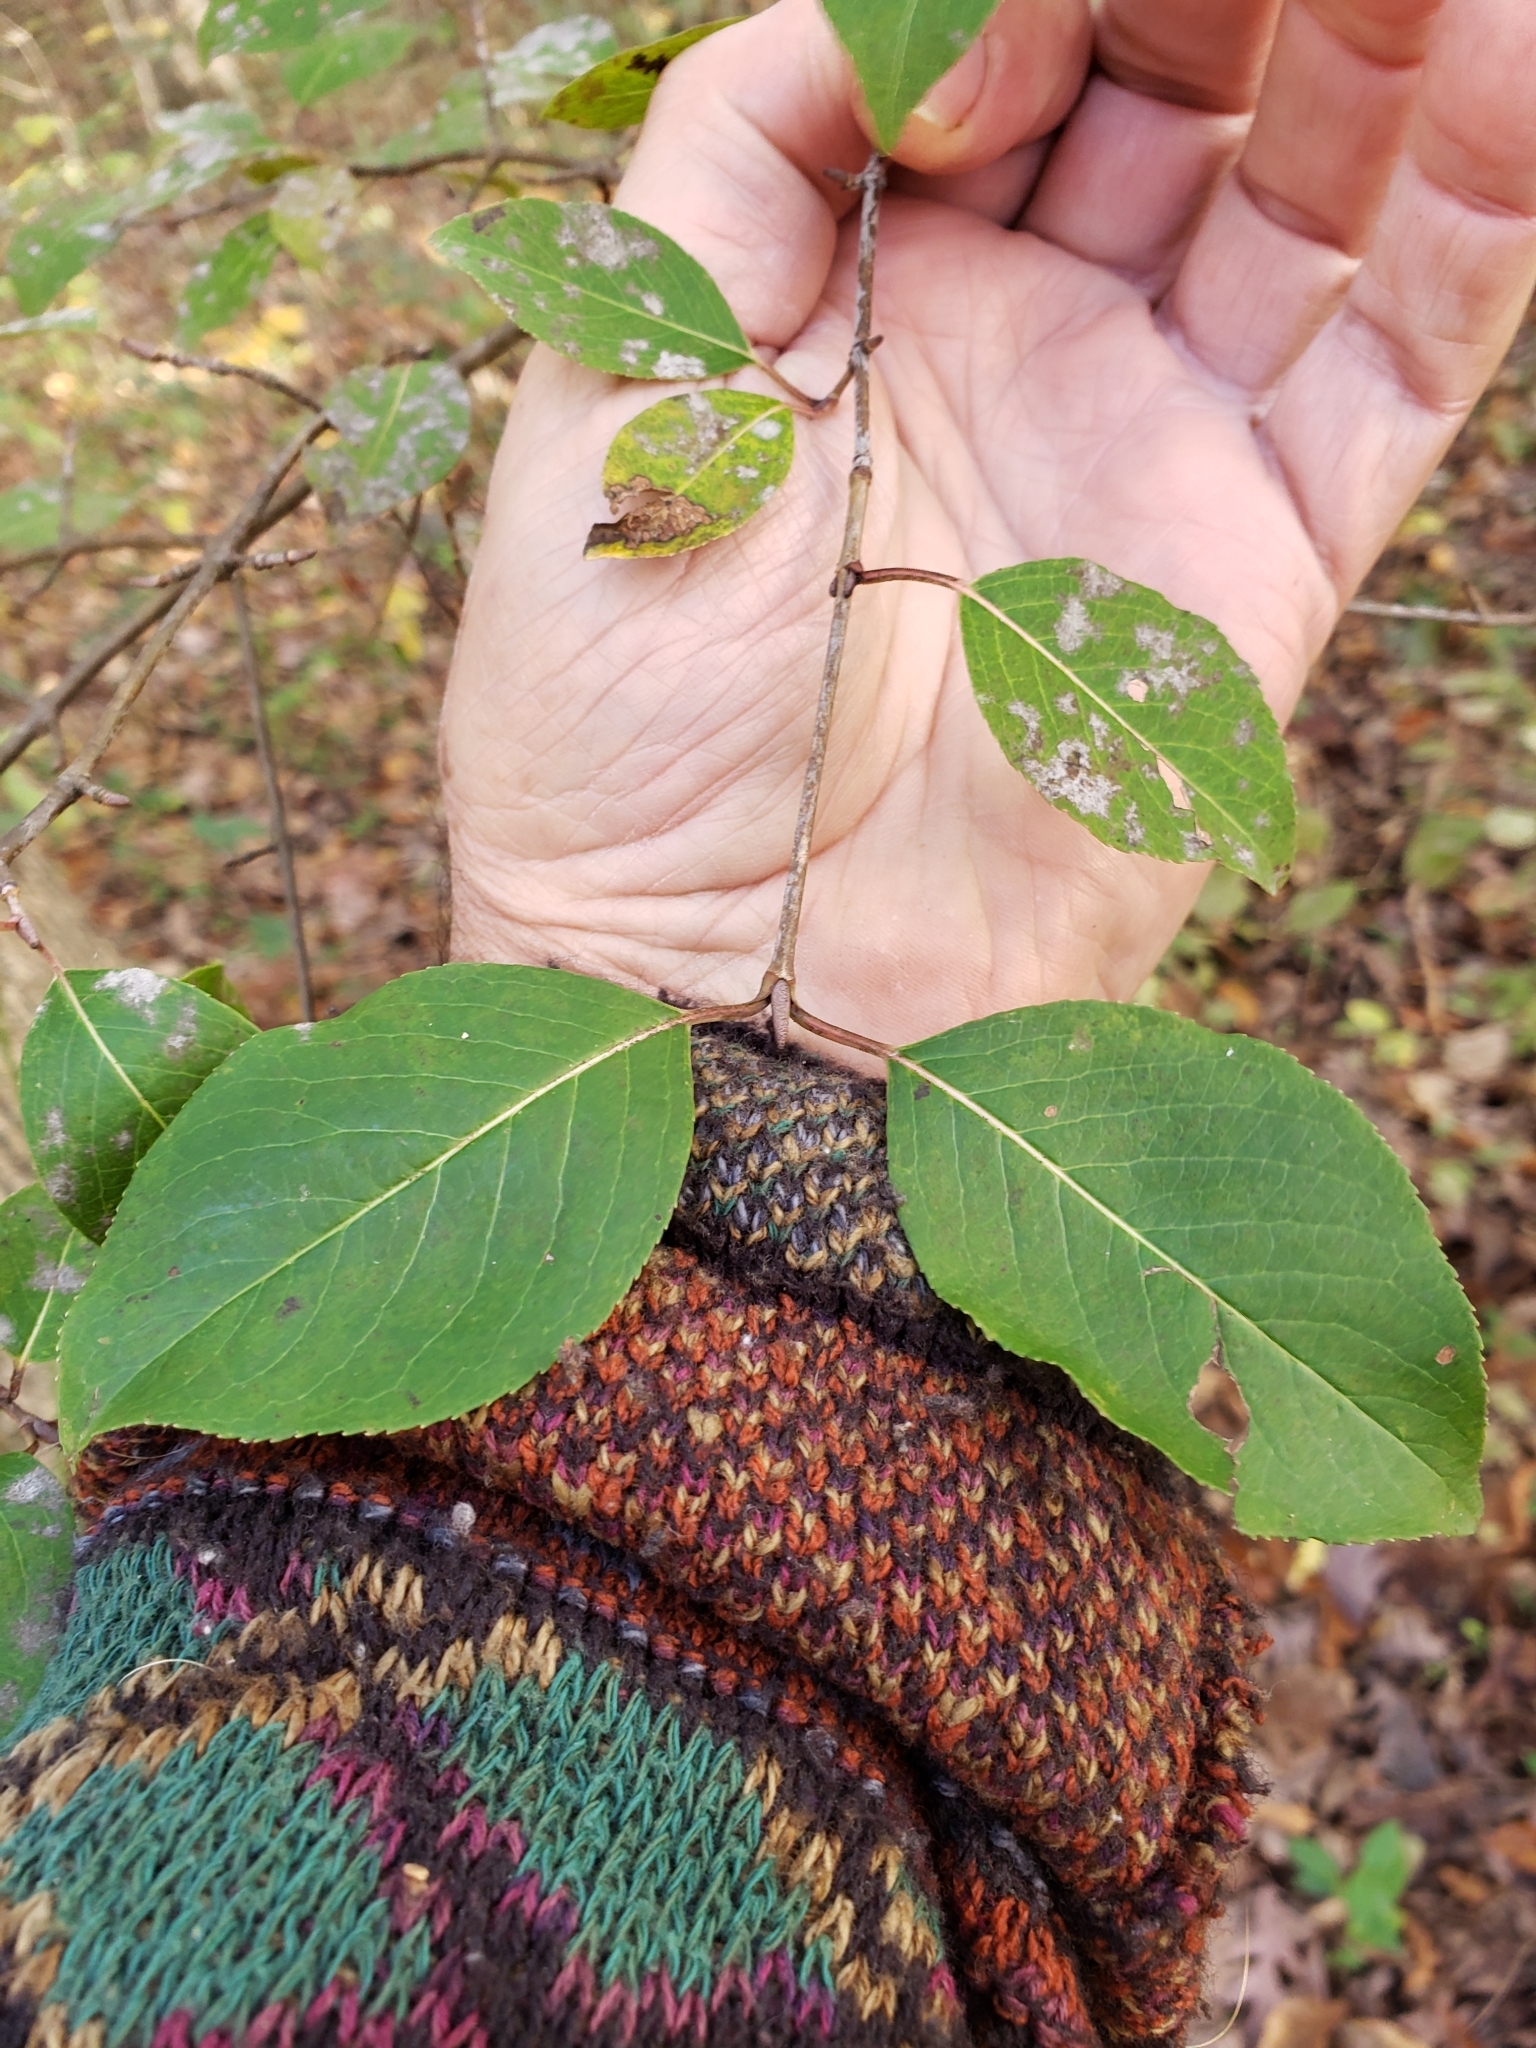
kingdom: Fungi
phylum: Ascomycota
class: Leotiomycetes
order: Helotiales
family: Erysiphaceae
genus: Erysiphe
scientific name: Erysiphe viburni
